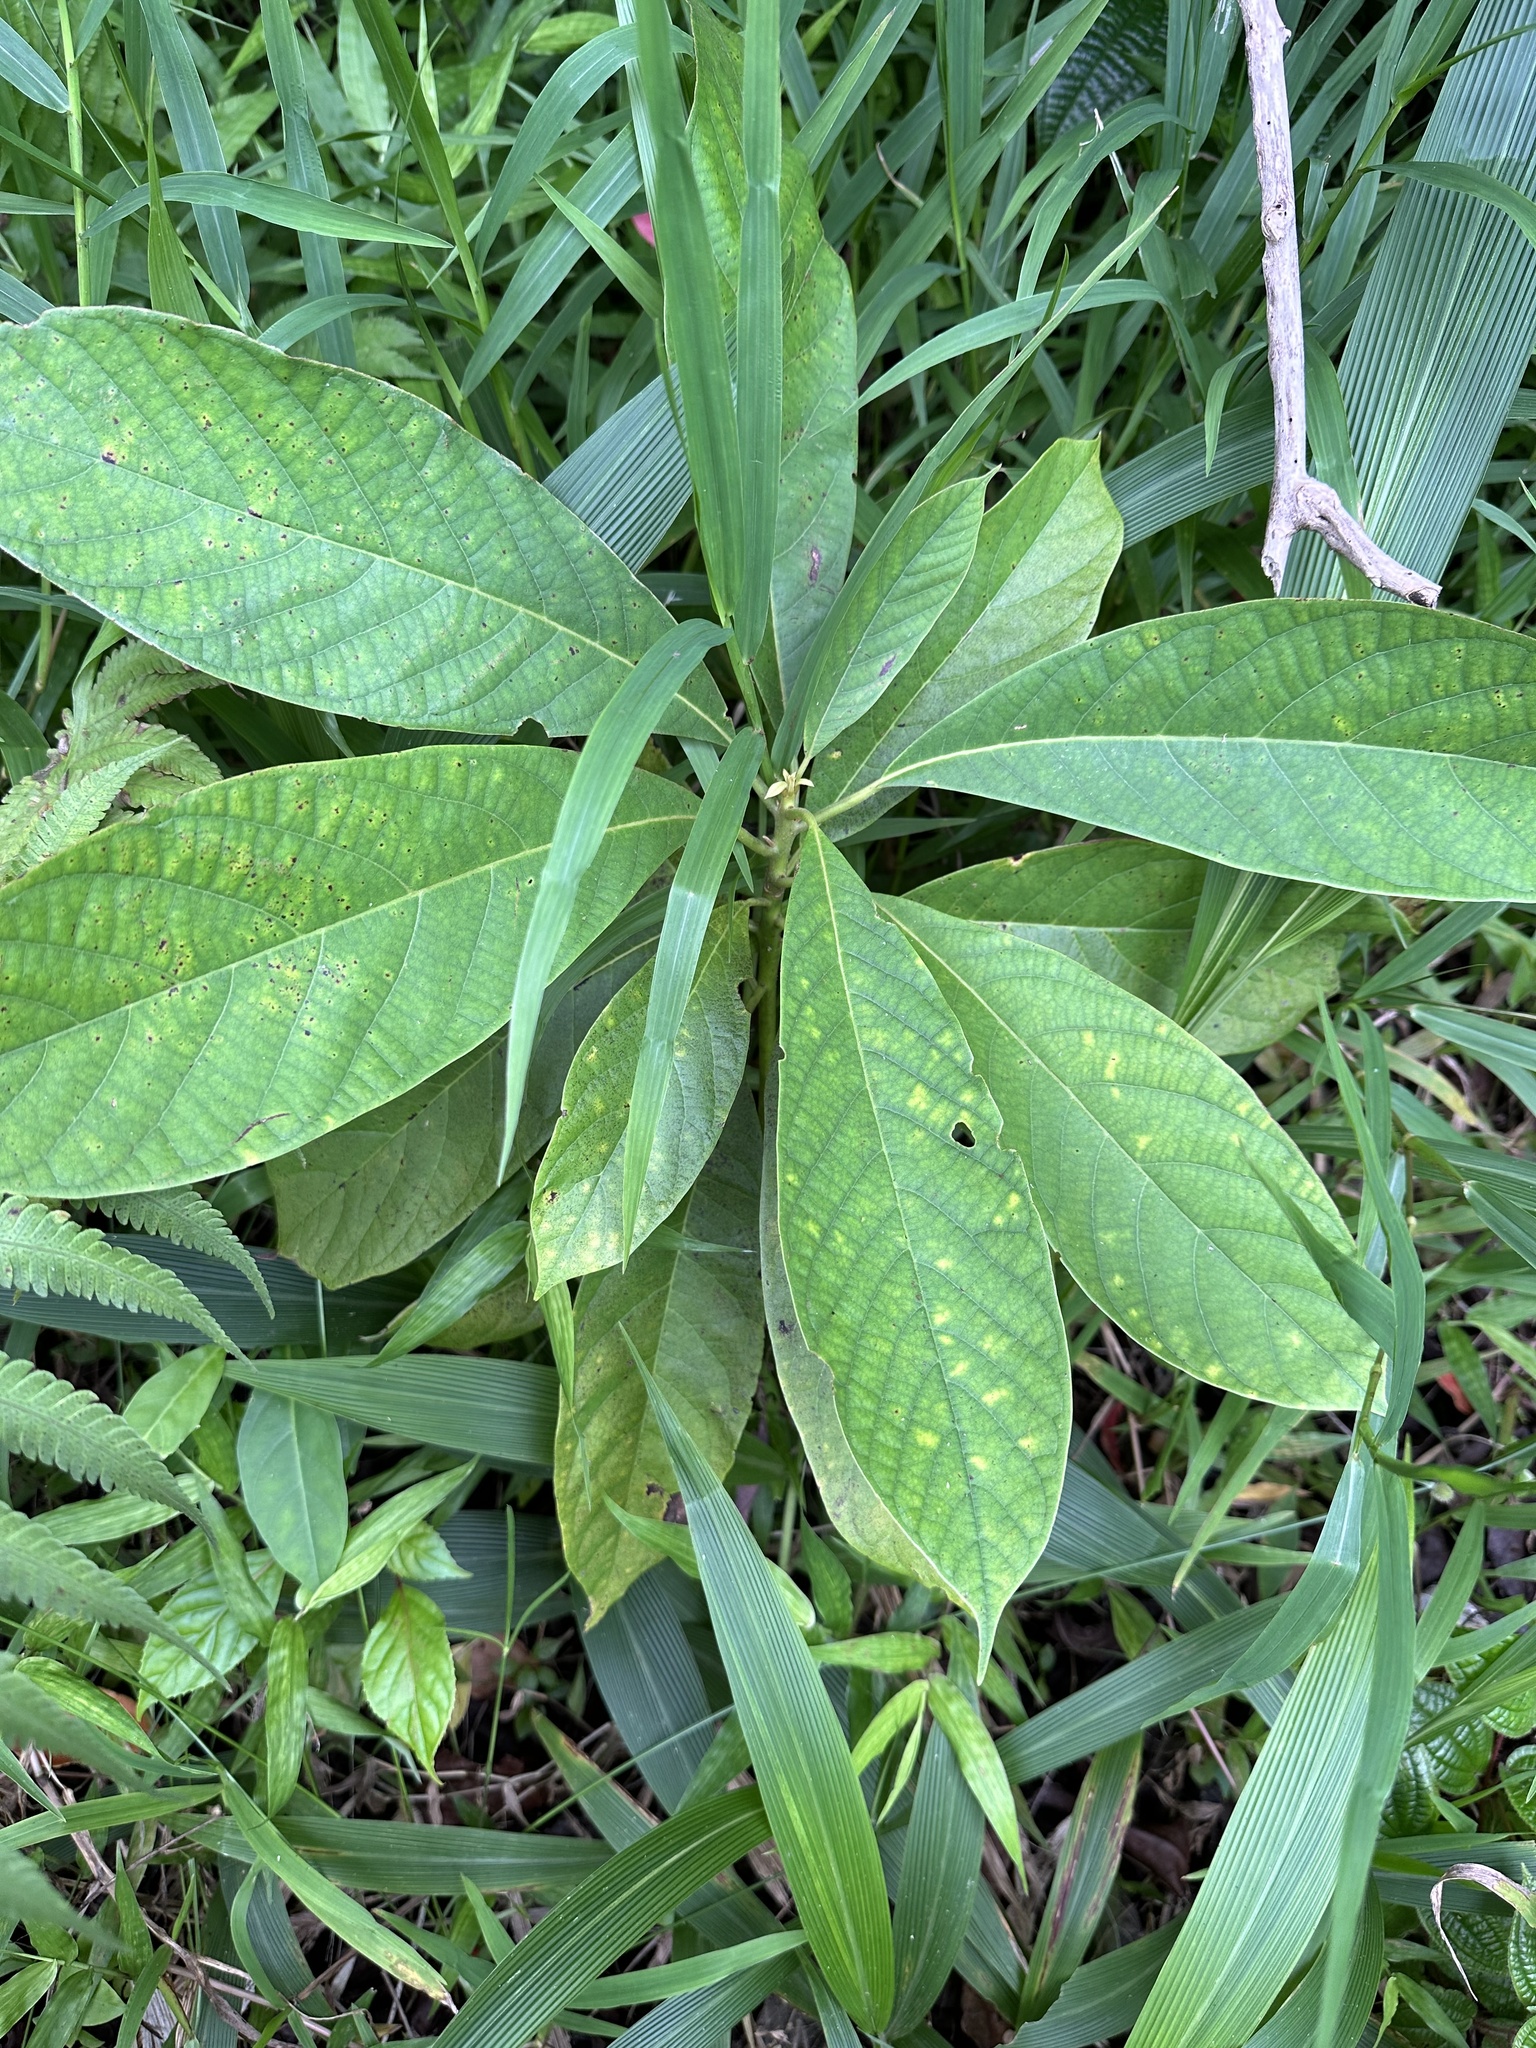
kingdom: Plantae
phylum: Tracheophyta
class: Magnoliopsida
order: Laurales
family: Lauraceae
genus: Persea
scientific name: Persea americana
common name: Avocado
